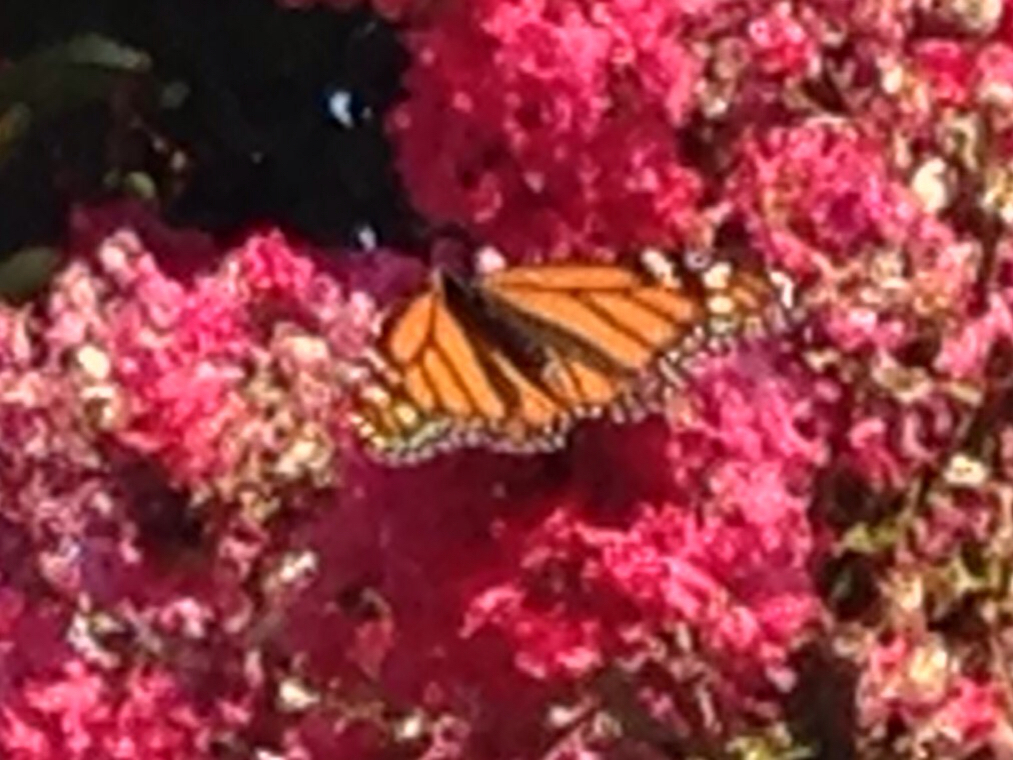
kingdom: Animalia
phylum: Arthropoda
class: Insecta
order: Lepidoptera
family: Nymphalidae
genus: Danaus
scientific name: Danaus plexippus
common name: Monarch
